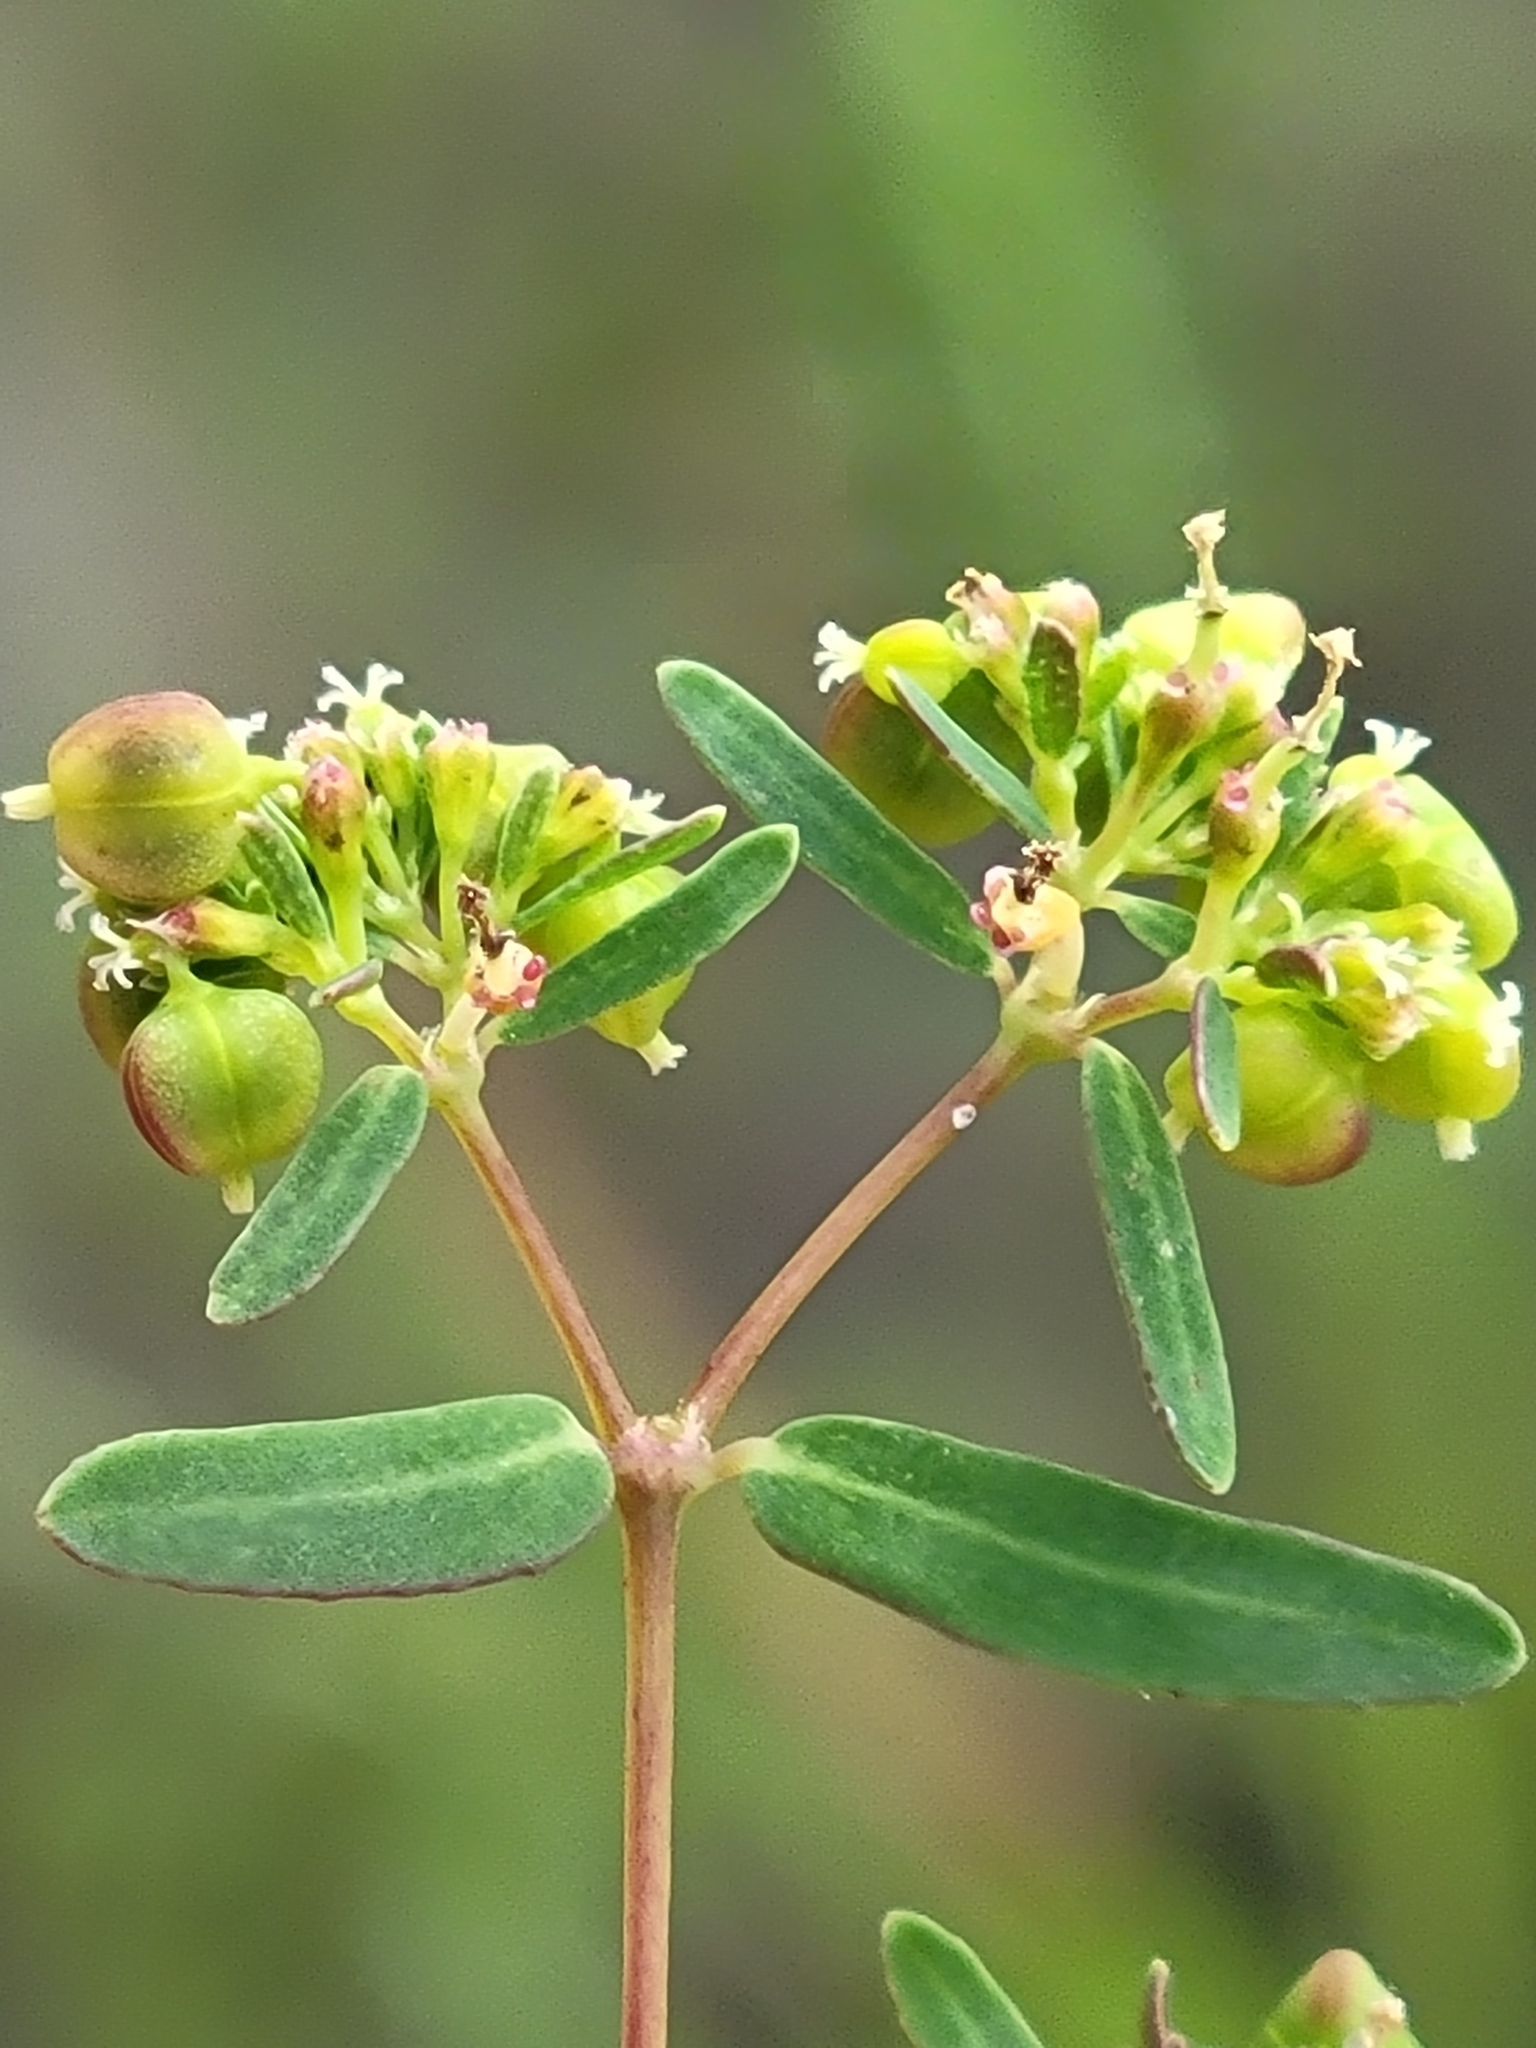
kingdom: Plantae
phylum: Tracheophyta
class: Magnoliopsida
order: Malpighiales
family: Euphorbiaceae
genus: Euphorbia
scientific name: Euphorbia hyssopifolia
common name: Hyssopleaf sandmat
